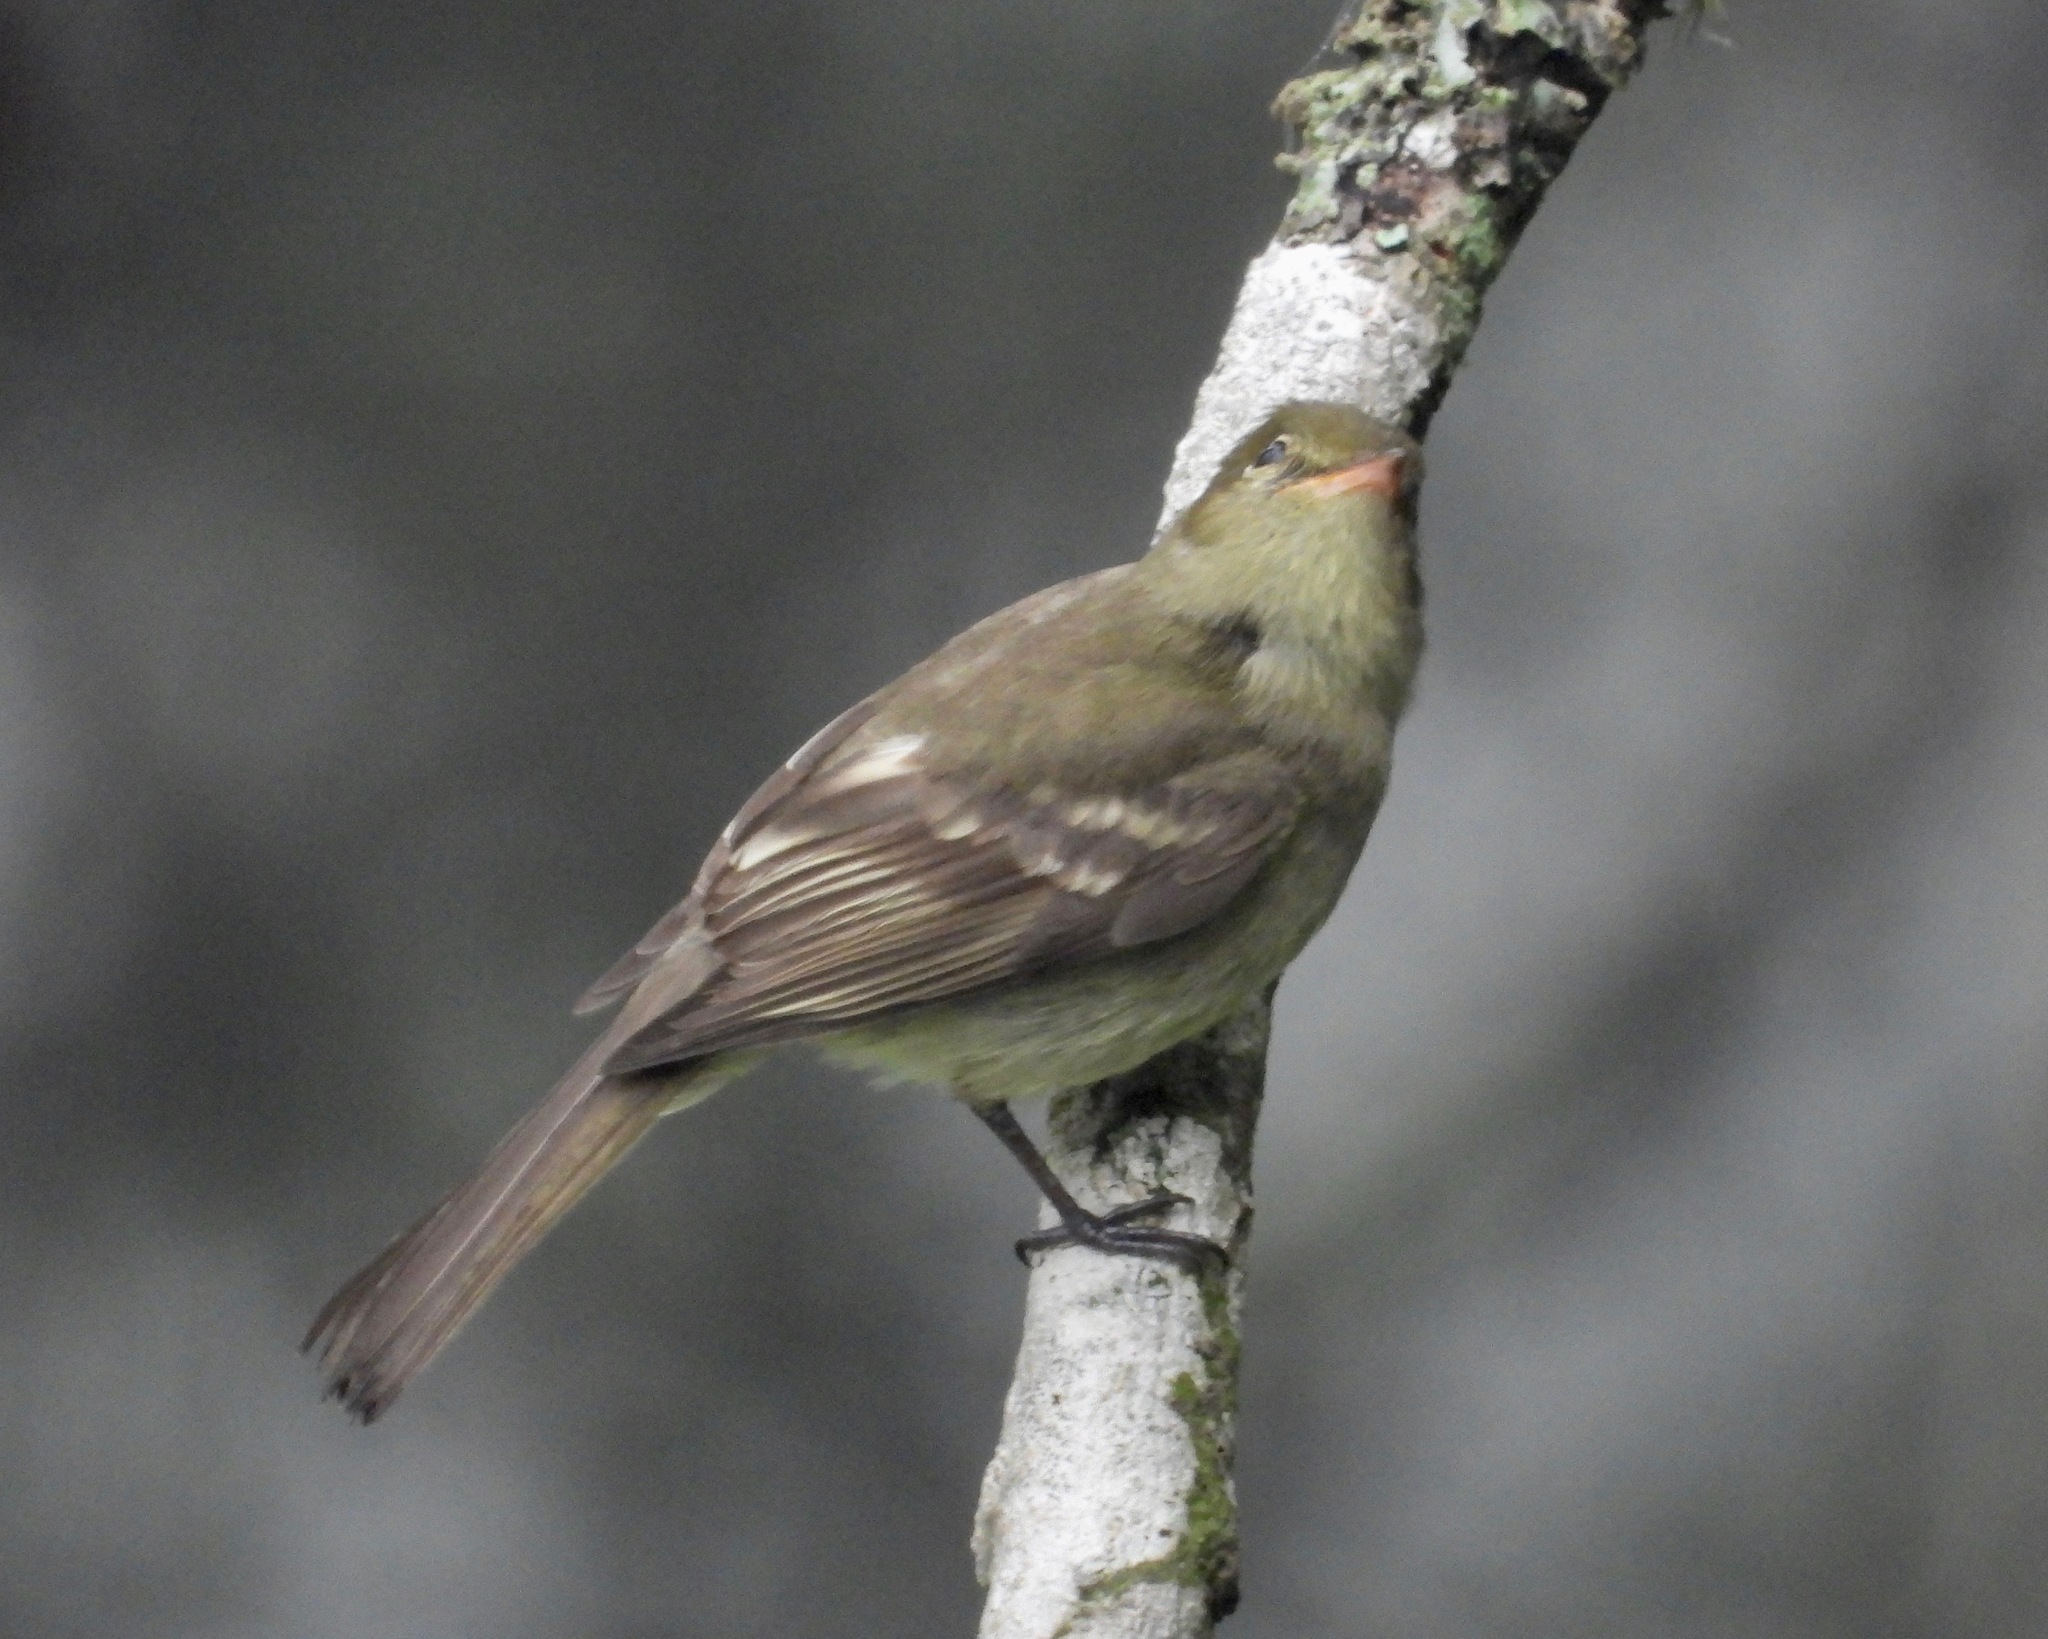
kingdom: Animalia
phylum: Chordata
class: Aves
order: Passeriformes
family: Tyrannidae
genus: Elaenia
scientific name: Elaenia frantzii
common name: Mountain elaenia
